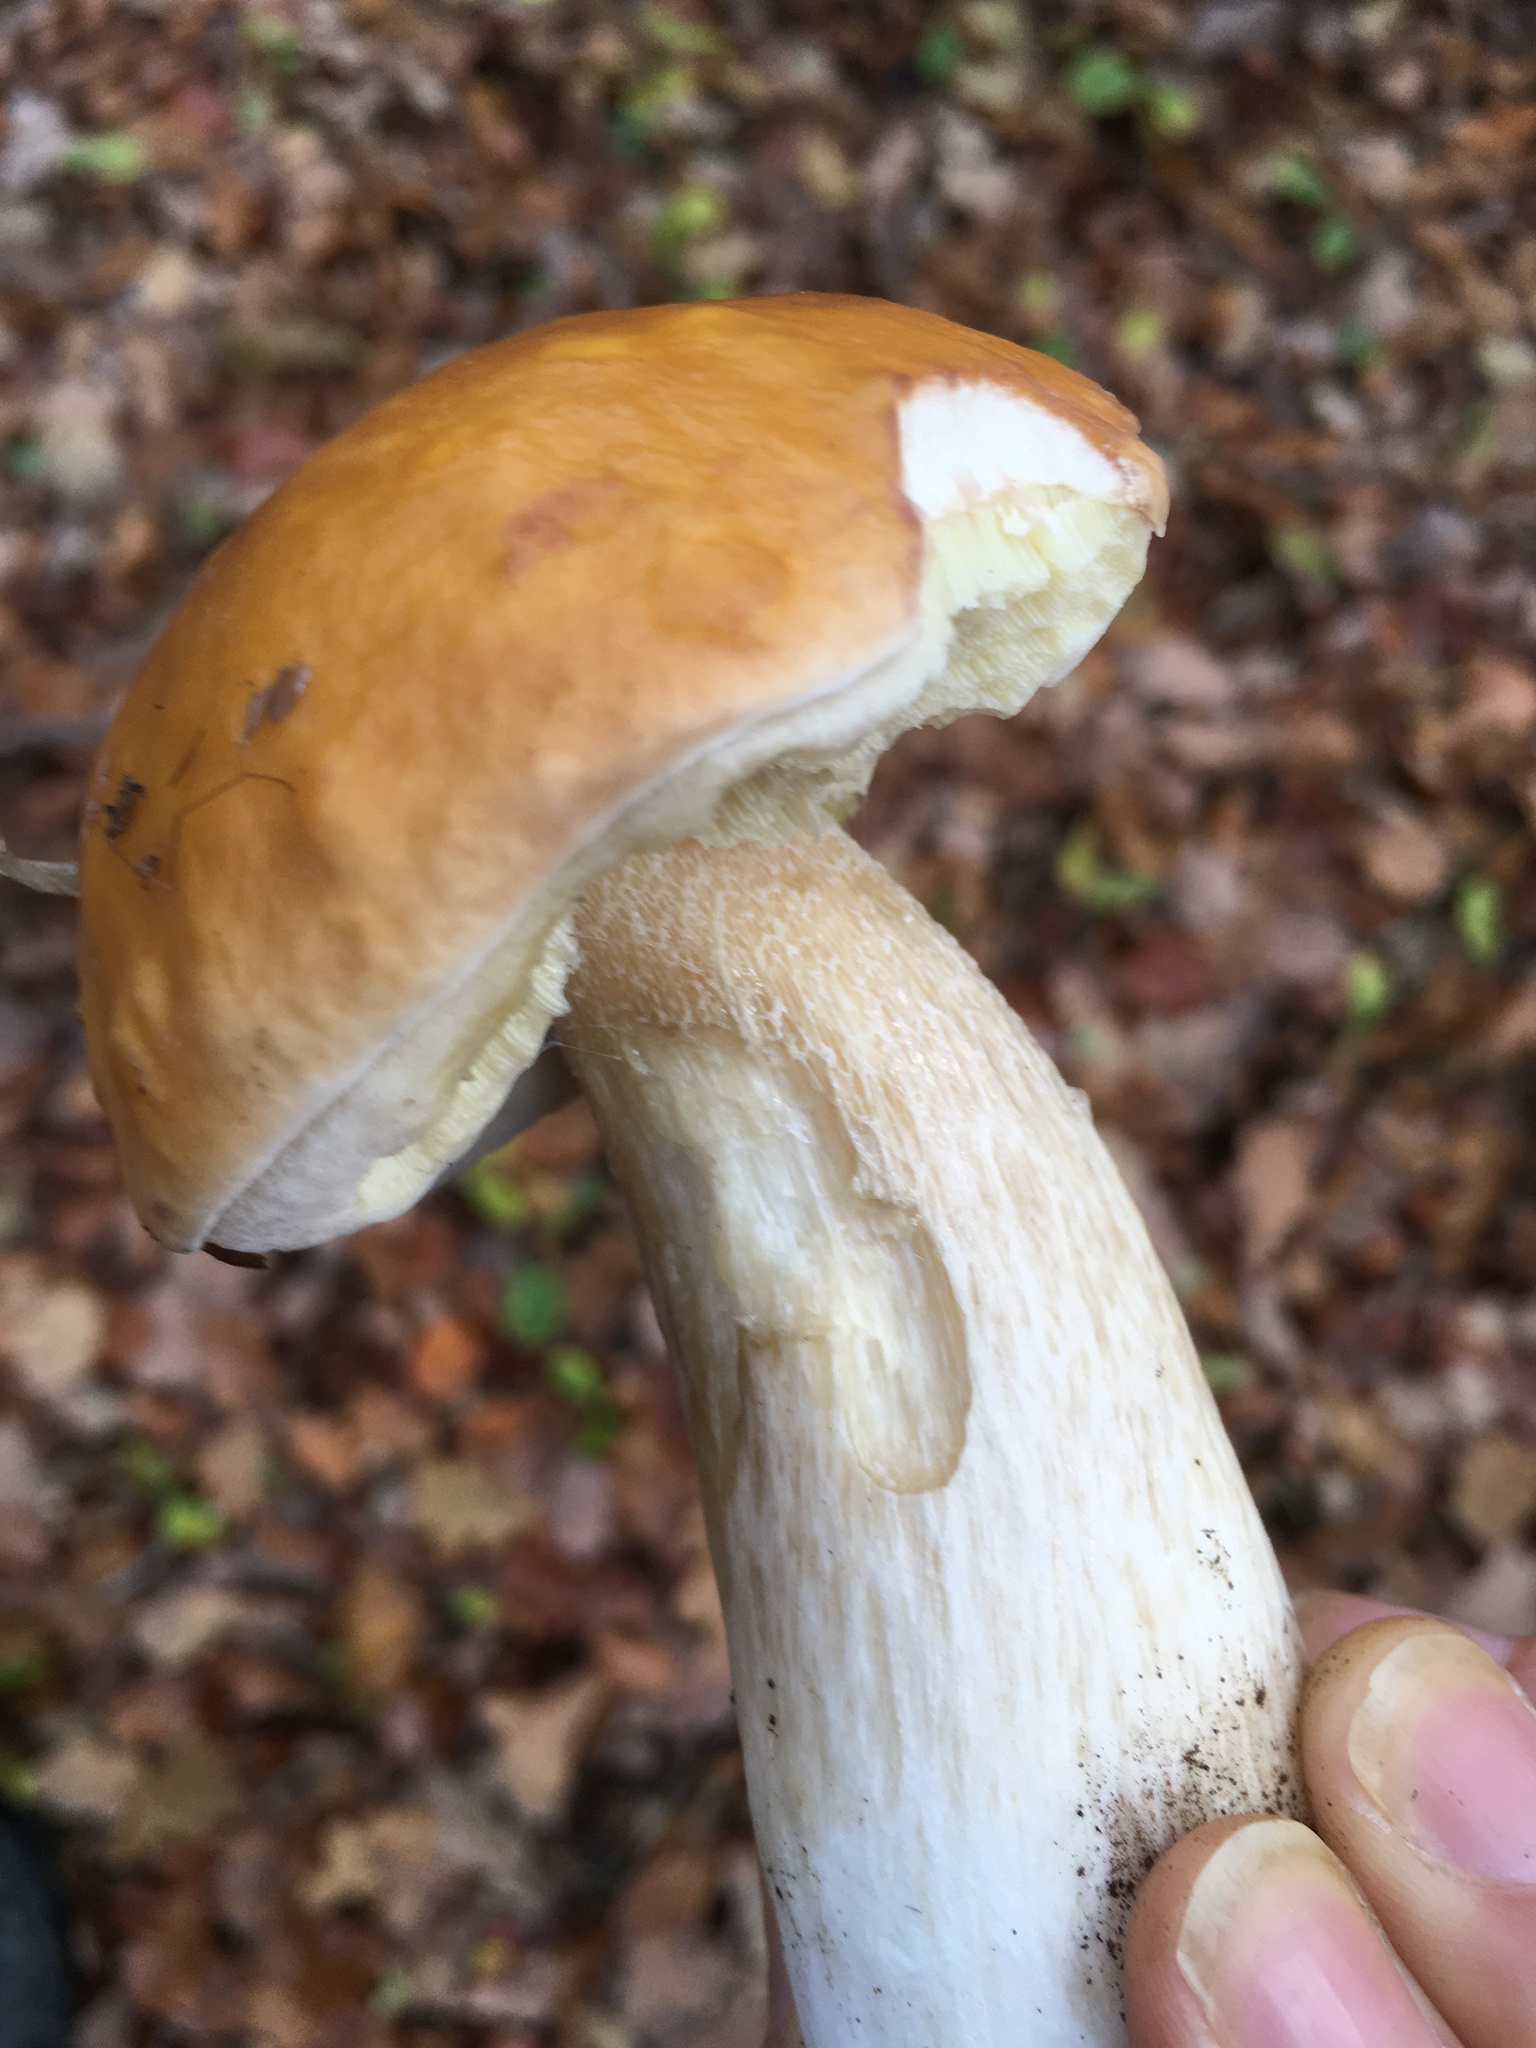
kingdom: Fungi
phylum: Basidiomycota
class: Agaricomycetes
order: Boletales
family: Boletaceae
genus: Boletus
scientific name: Boletus edulis
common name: Cep
